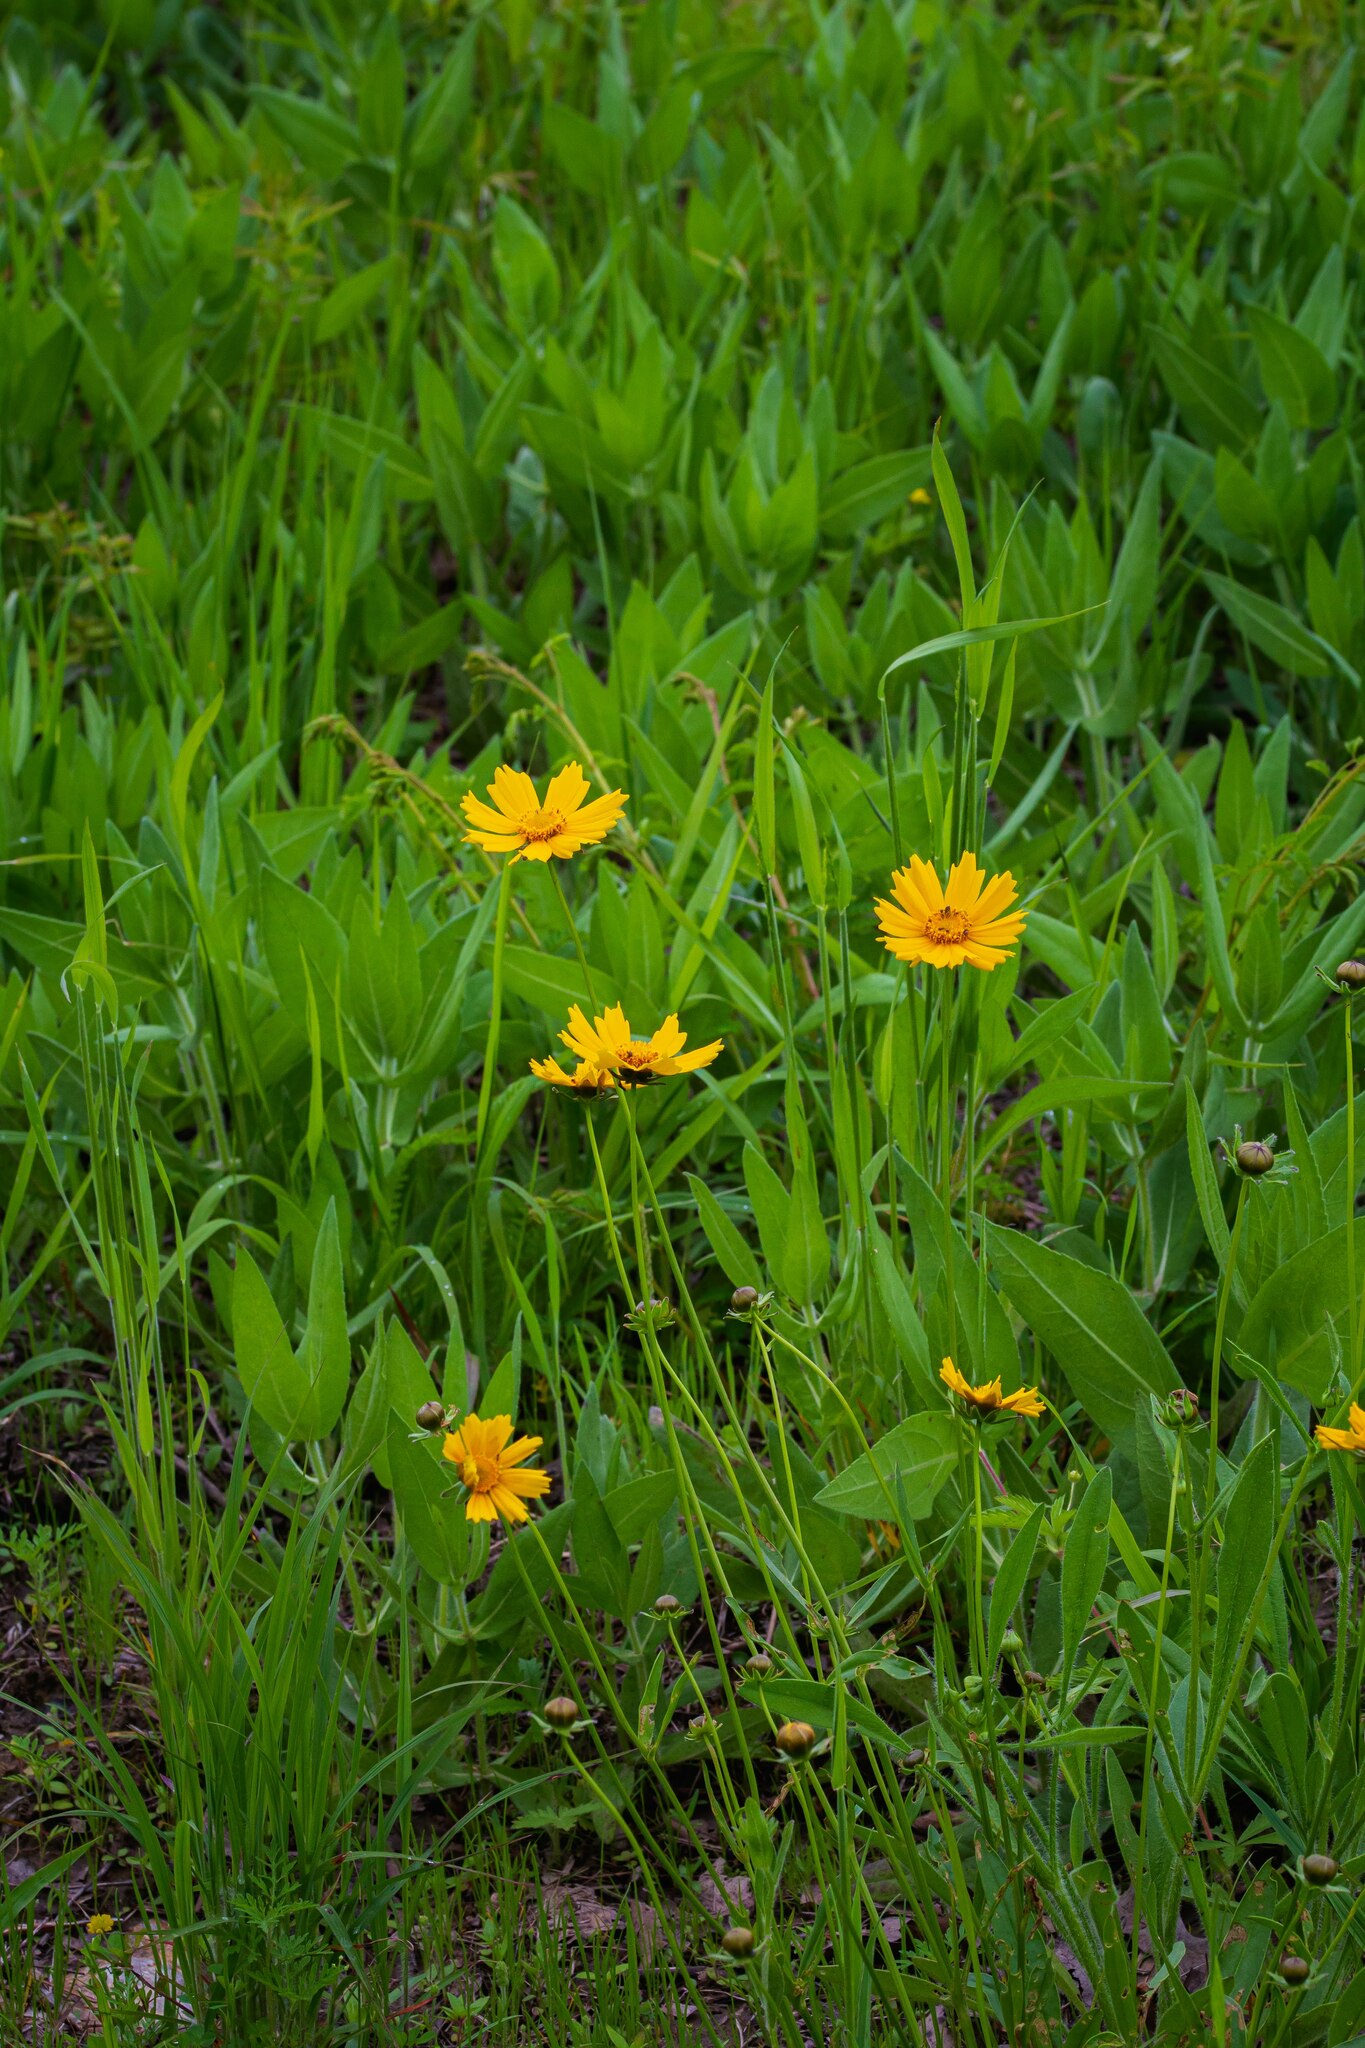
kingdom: Plantae
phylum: Tracheophyta
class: Magnoliopsida
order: Asterales
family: Asteraceae
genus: Coreopsis
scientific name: Coreopsis lanceolata
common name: Garden coreopsis
